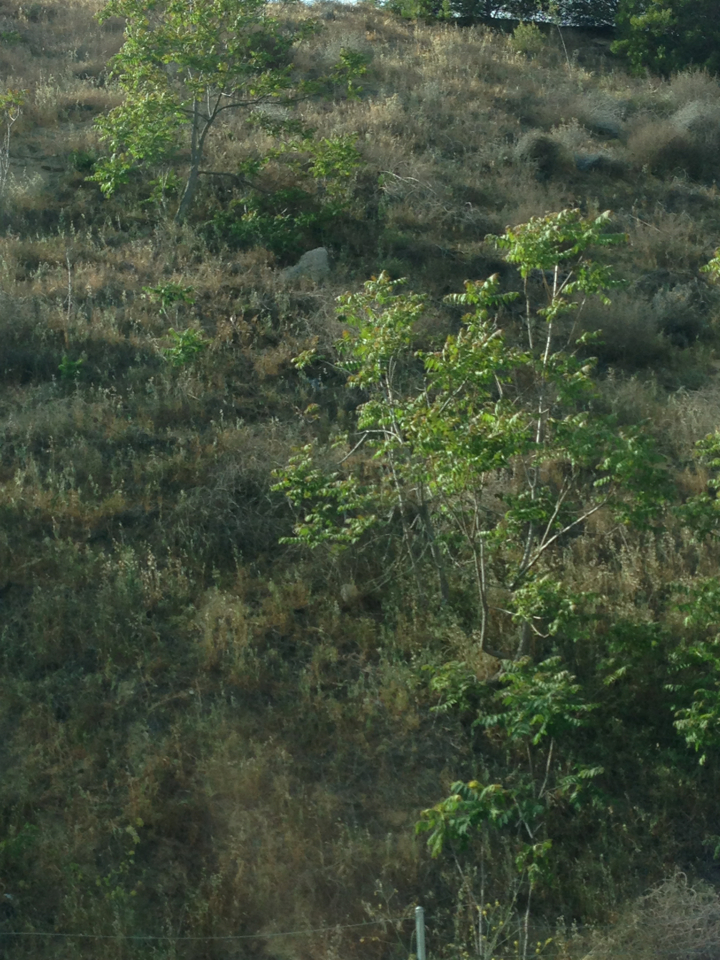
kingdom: Plantae
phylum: Tracheophyta
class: Magnoliopsida
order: Sapindales
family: Simaroubaceae
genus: Ailanthus
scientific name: Ailanthus altissima
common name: Tree-of-heaven
